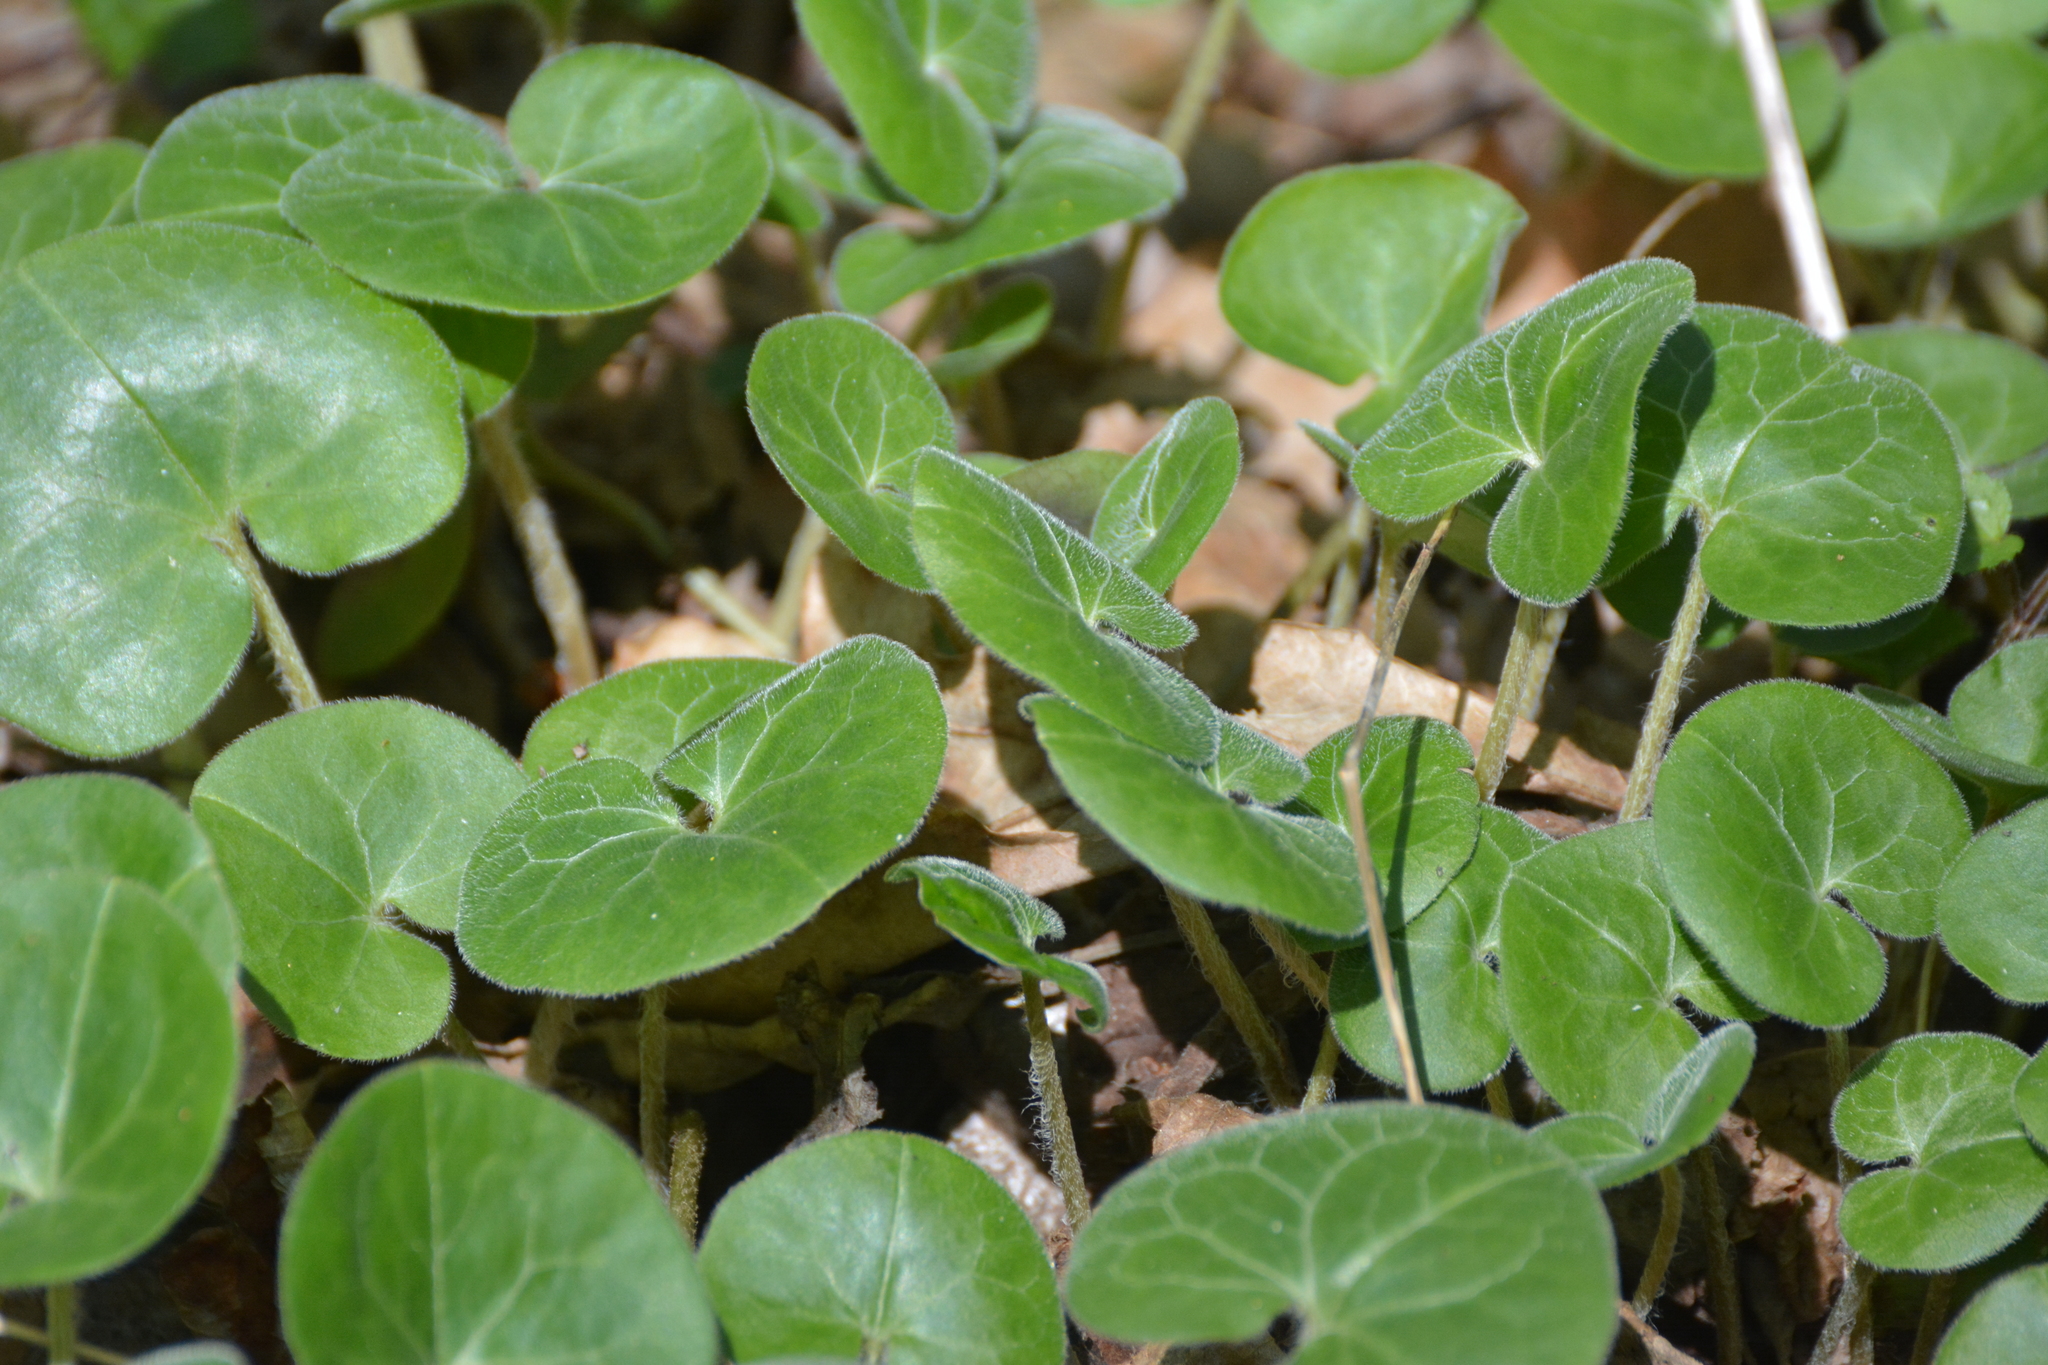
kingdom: Plantae
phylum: Tracheophyta
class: Magnoliopsida
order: Piperales
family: Aristolochiaceae
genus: Asarum
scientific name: Asarum europaeum
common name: Asarabacca
